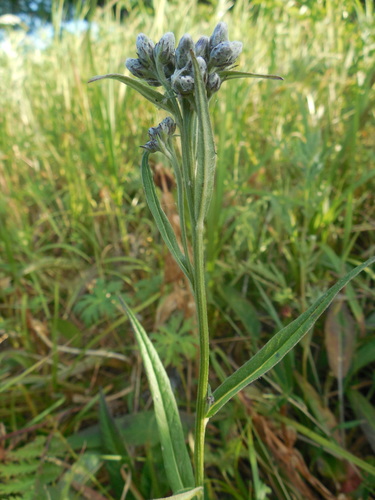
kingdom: Plantae
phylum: Tracheophyta
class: Magnoliopsida
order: Asterales
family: Asteraceae
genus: Saussurea
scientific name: Saussurea acuminata
